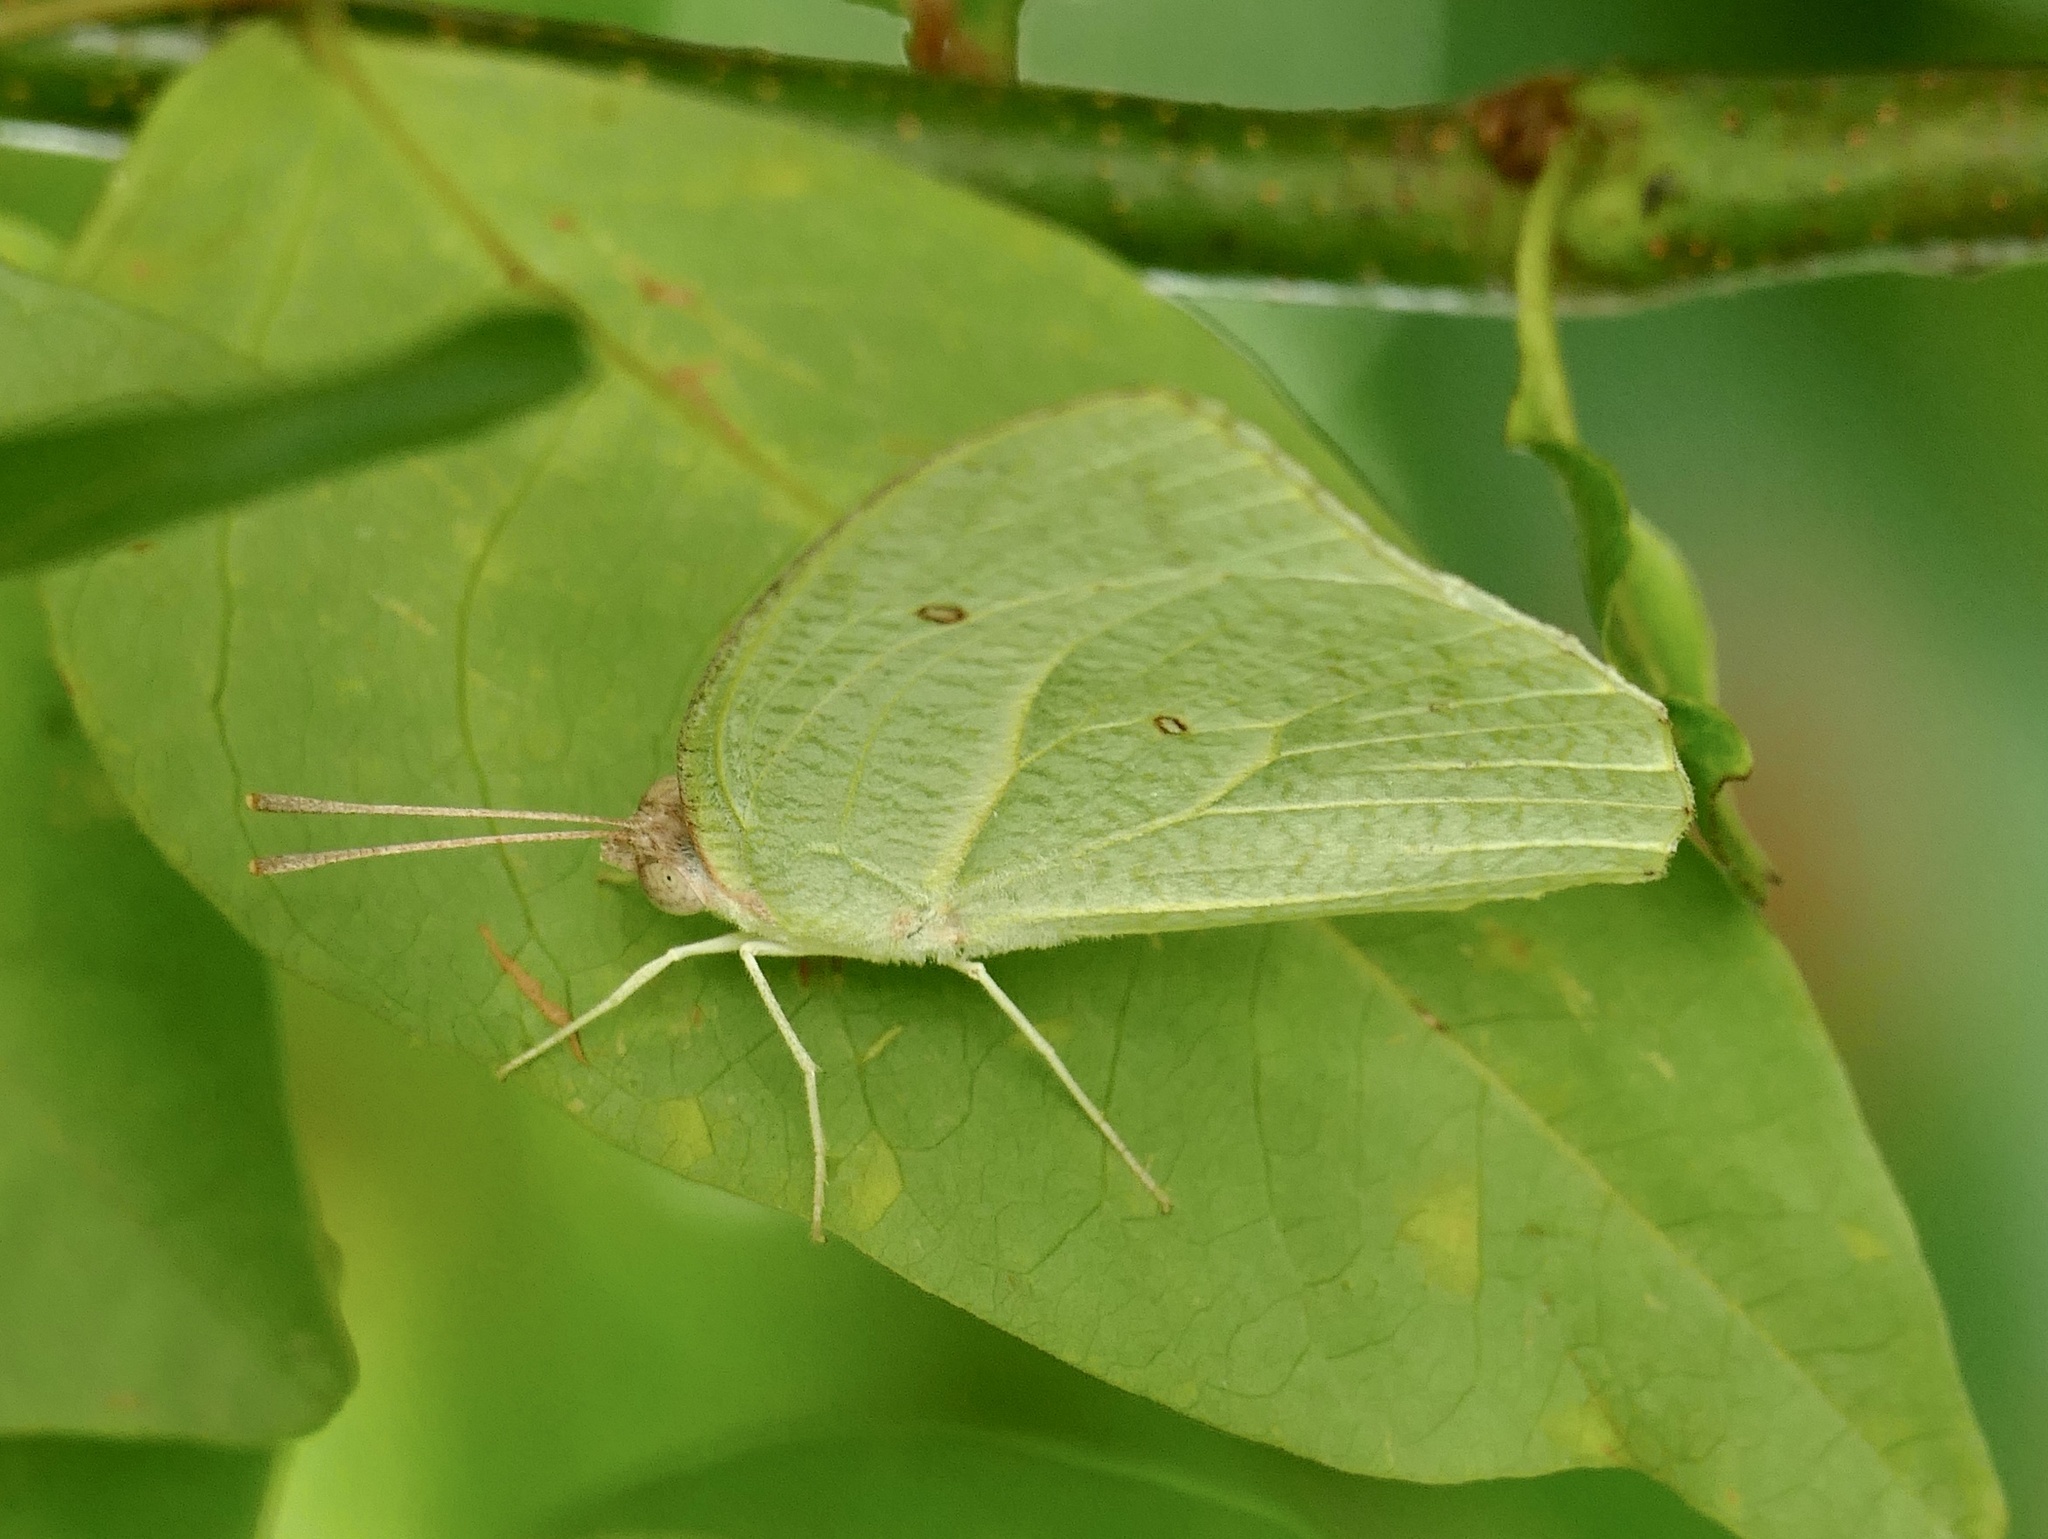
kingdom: Animalia
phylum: Arthropoda
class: Insecta
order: Lepidoptera
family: Pieridae
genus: Catopsilia
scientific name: Catopsilia florella
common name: African migrant
